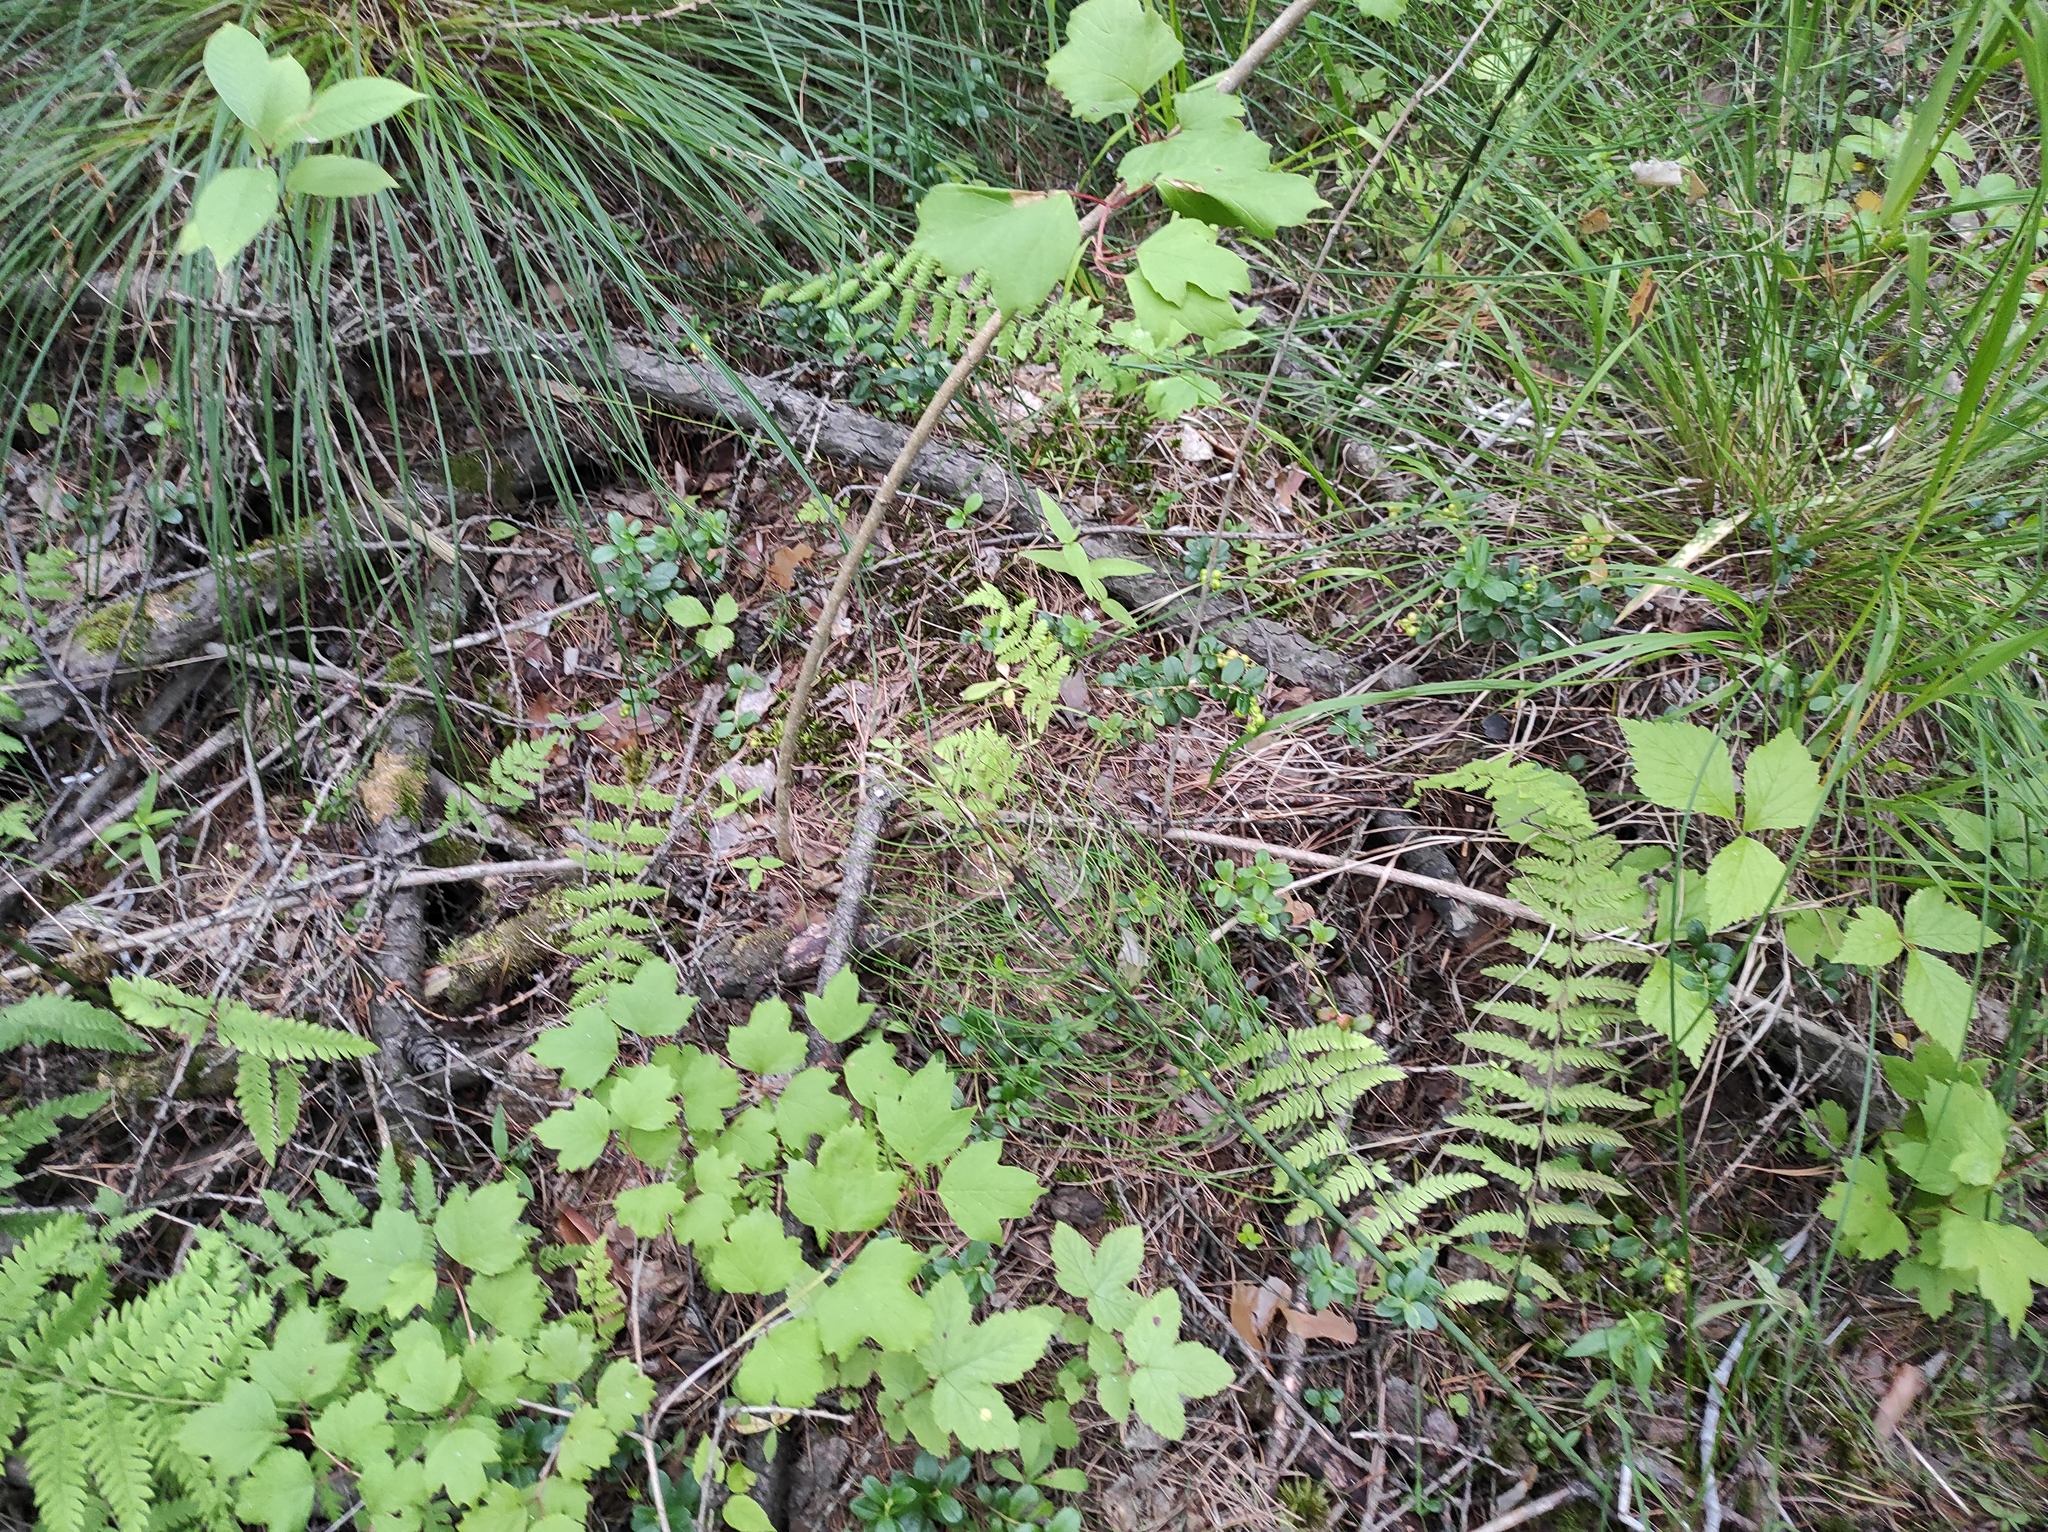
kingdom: Plantae
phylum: Tracheophyta
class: Polypodiopsida
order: Polypodiales
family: Thelypteridaceae
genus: Thelypteris
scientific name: Thelypteris palustris
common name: Marsh fern
